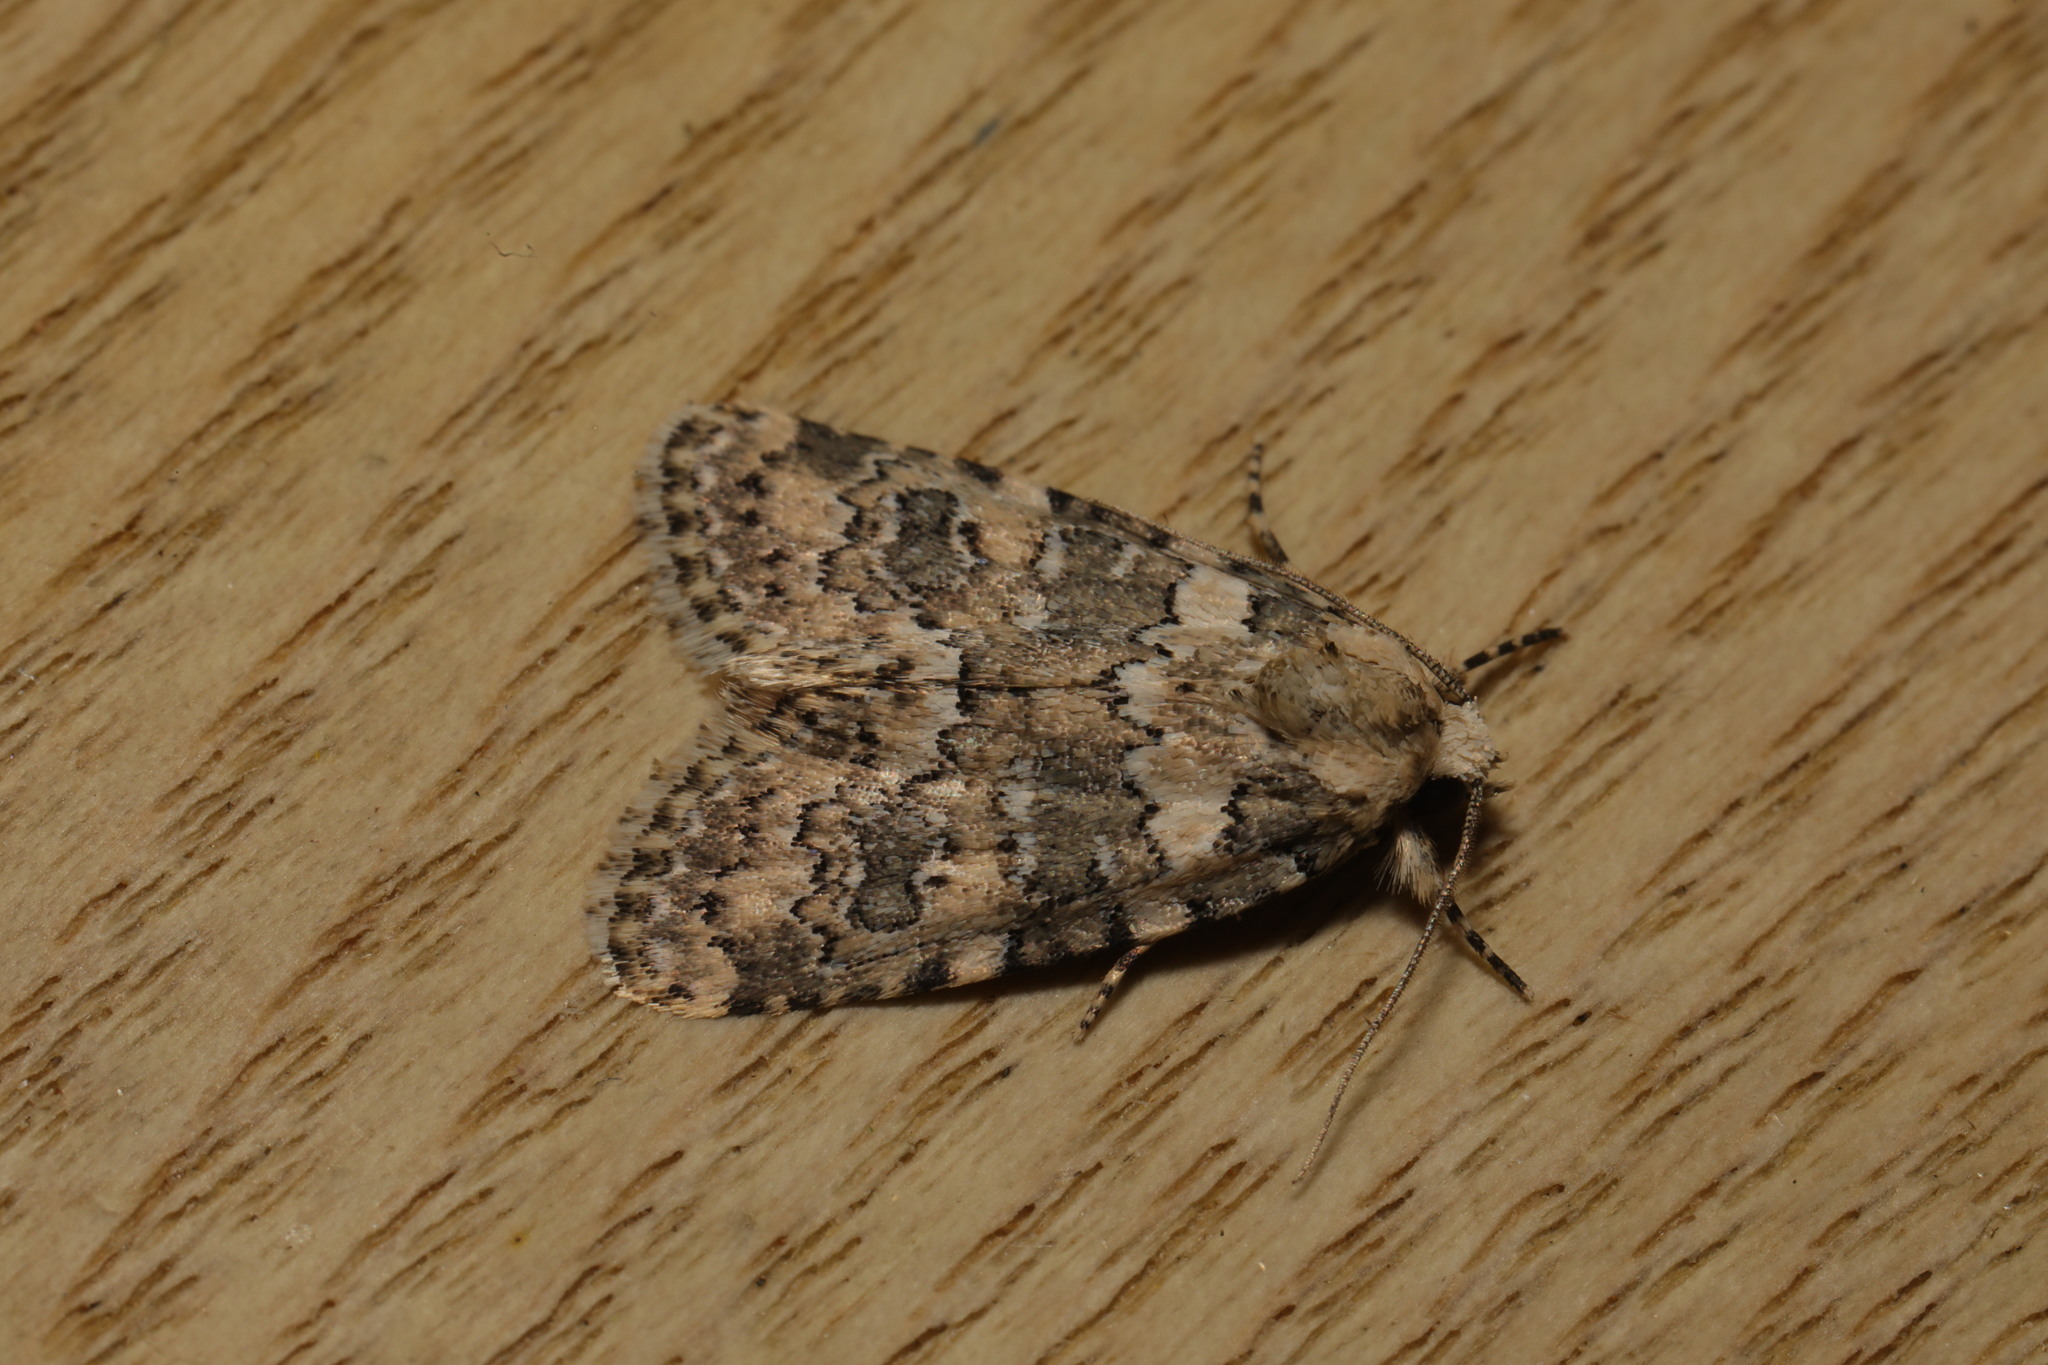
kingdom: Animalia
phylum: Arthropoda
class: Insecta
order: Lepidoptera
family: Noctuidae
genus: Bryophila
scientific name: Bryophila domestica
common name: Marbled beauty
